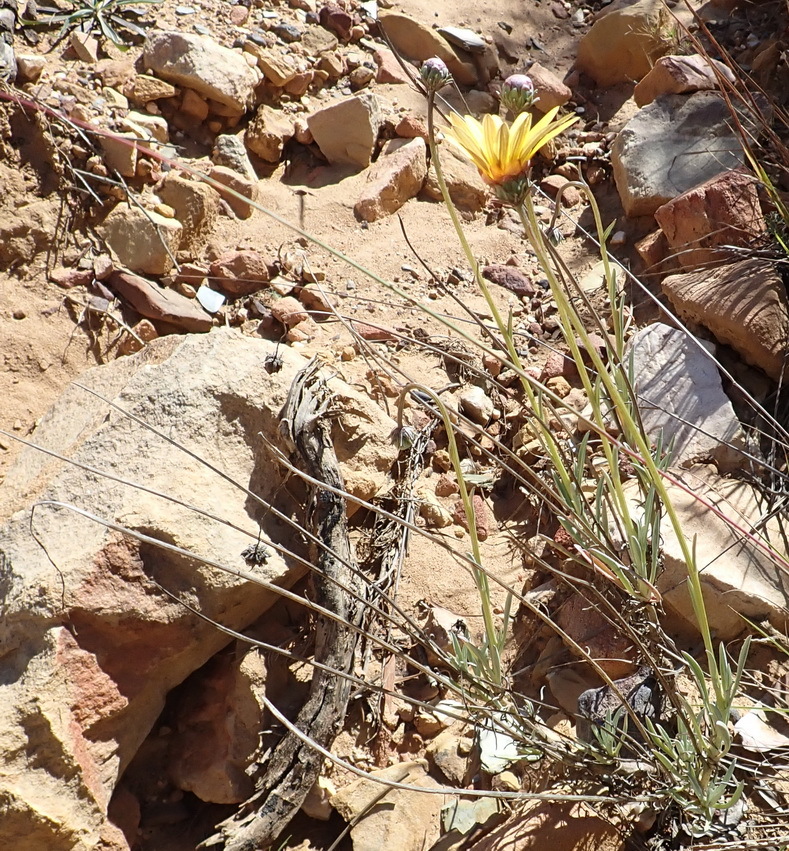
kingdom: Plantae
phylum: Tracheophyta
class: Magnoliopsida
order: Asterales
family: Asteraceae
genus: Arctotis
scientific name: Arctotis lanceolata
